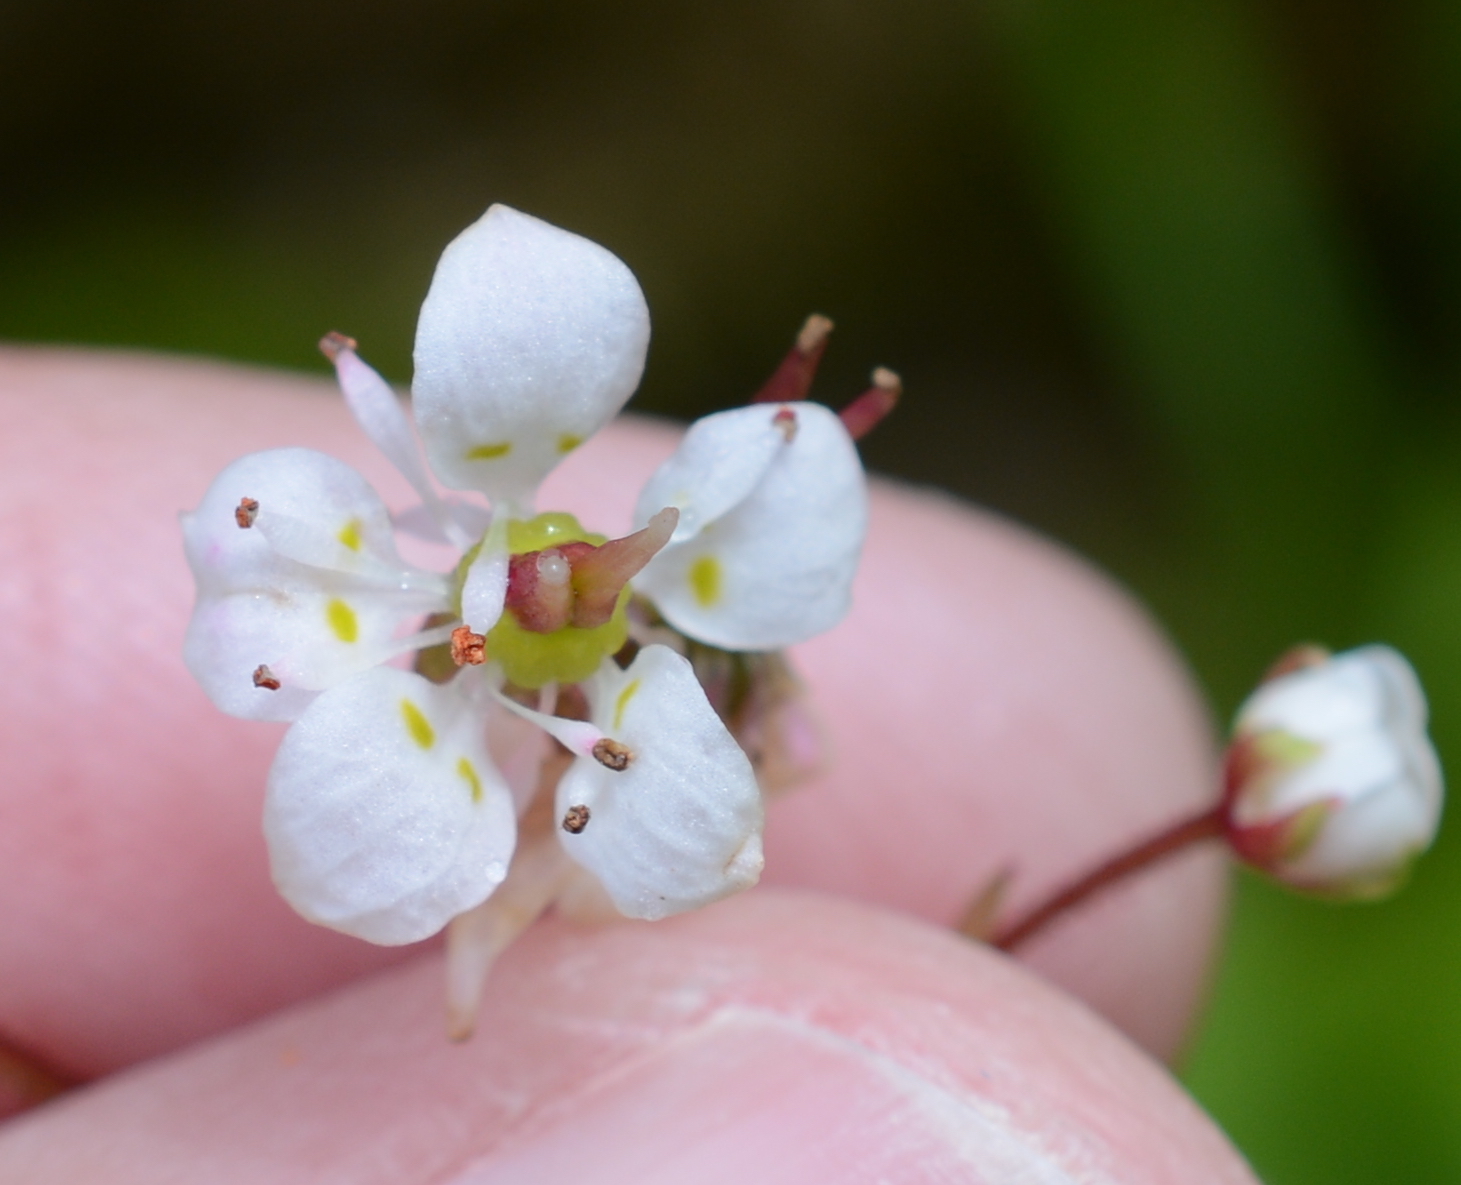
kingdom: Plantae
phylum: Tracheophyta
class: Magnoliopsida
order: Saxifragales
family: Saxifragaceae
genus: Micranthes
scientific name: Micranthes lyallii
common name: Lyall's saxifrage
